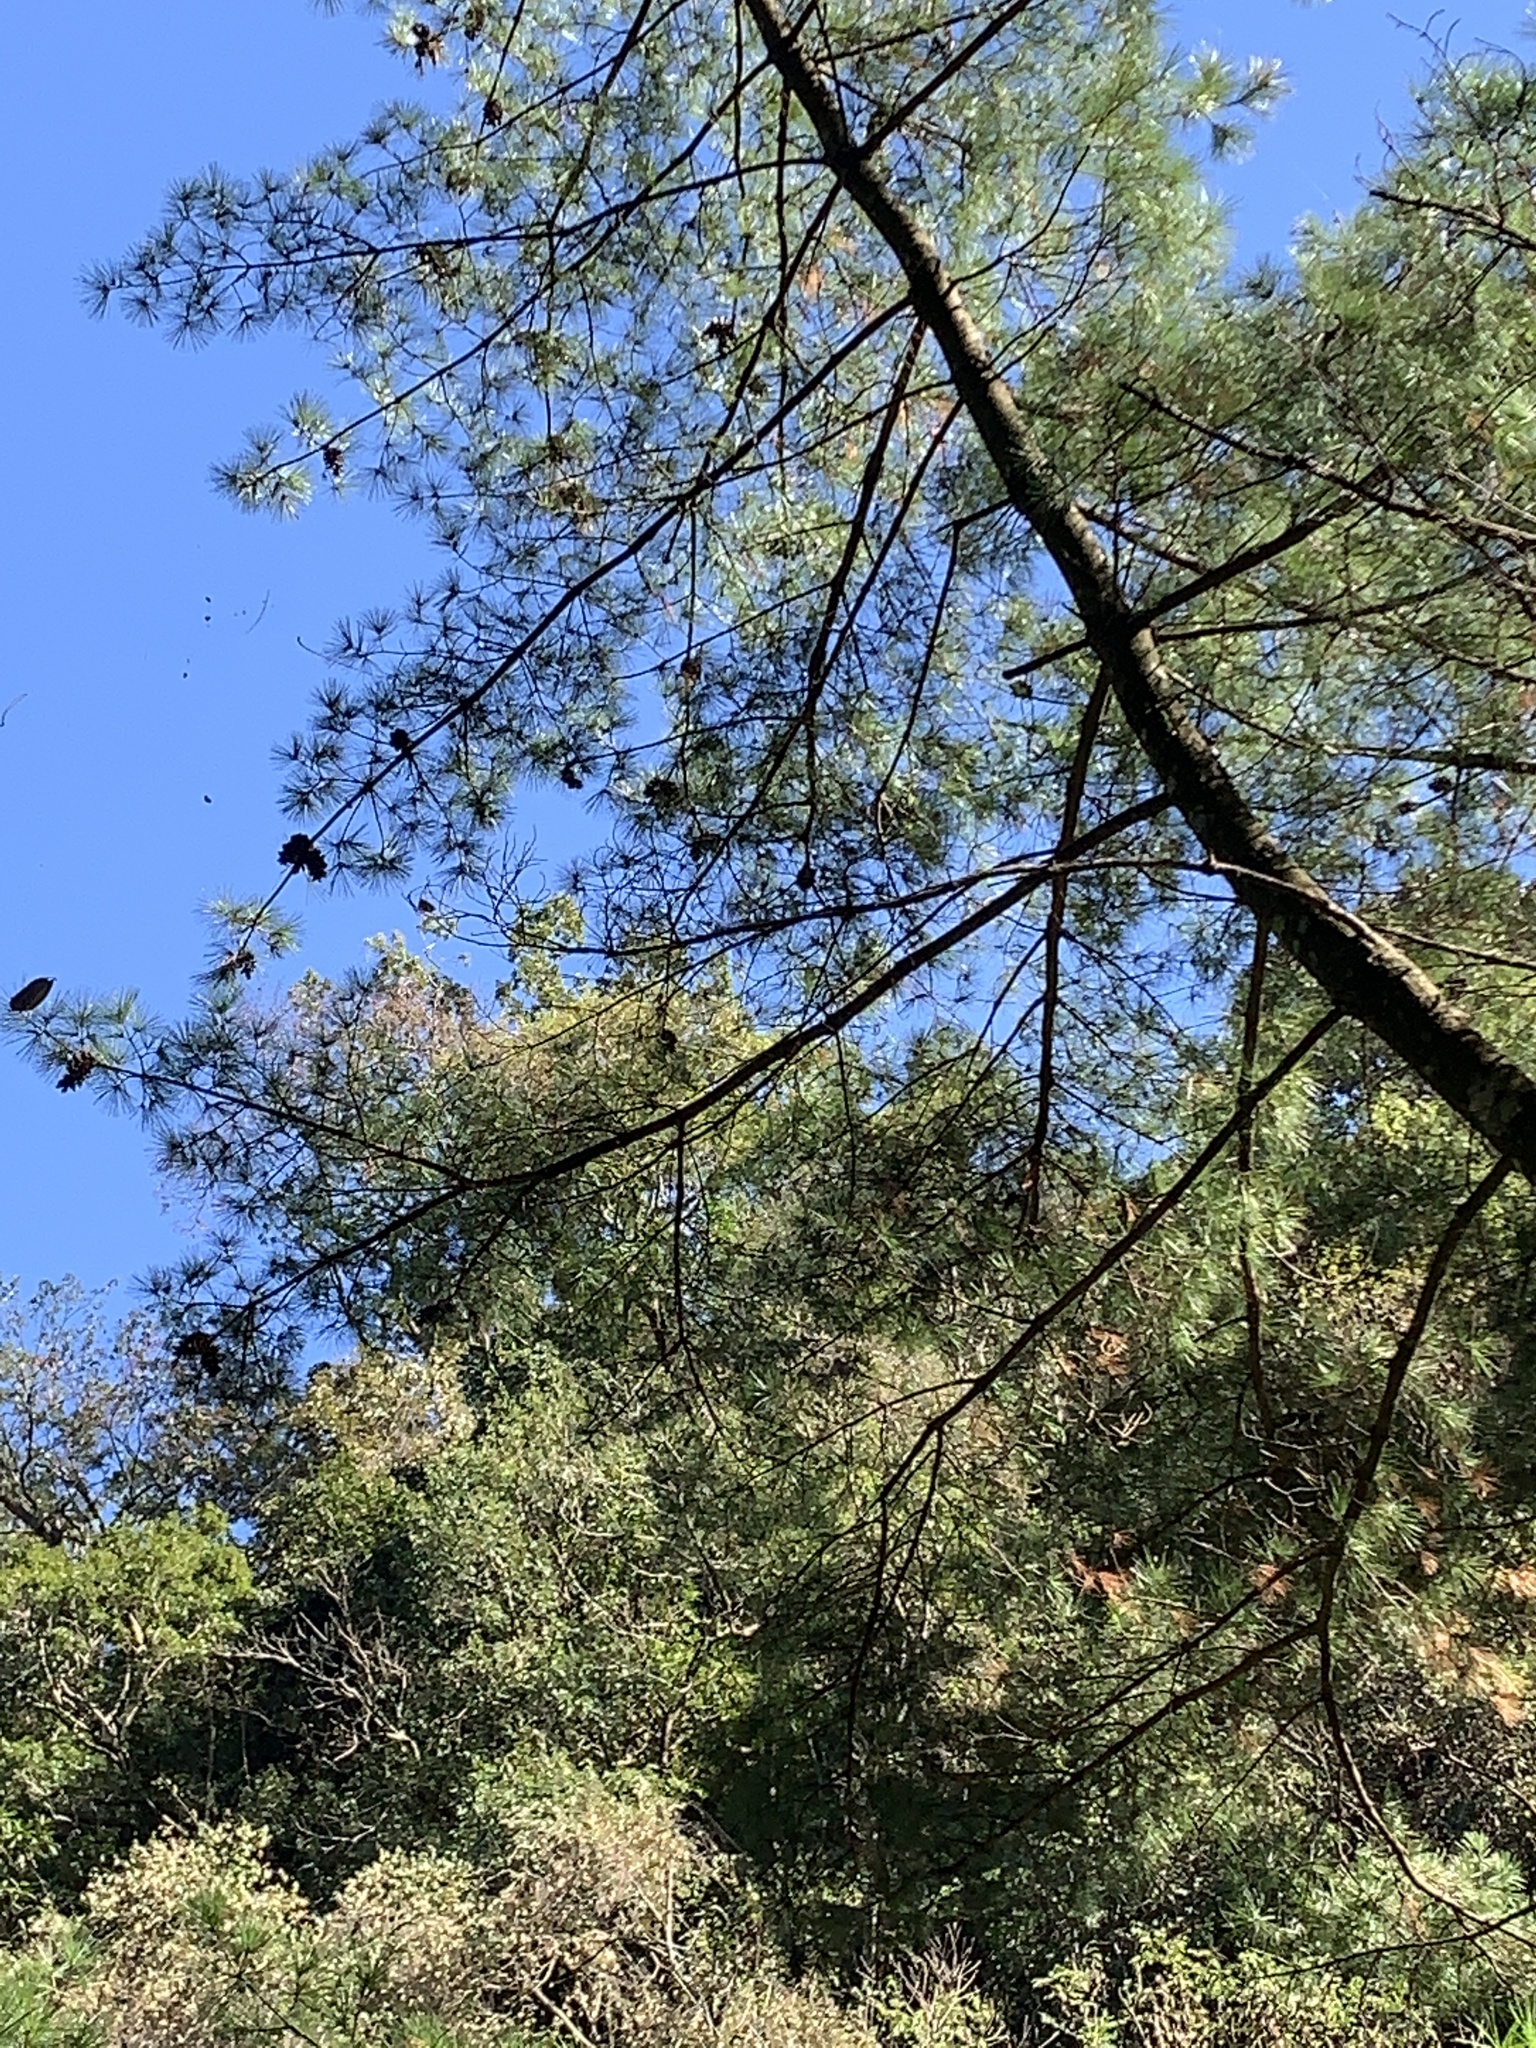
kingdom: Plantae
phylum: Tracheophyta
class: Pinopsida
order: Pinales
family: Pinaceae
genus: Pinus
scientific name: Pinus morrisonicola
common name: Taiwan white pine
